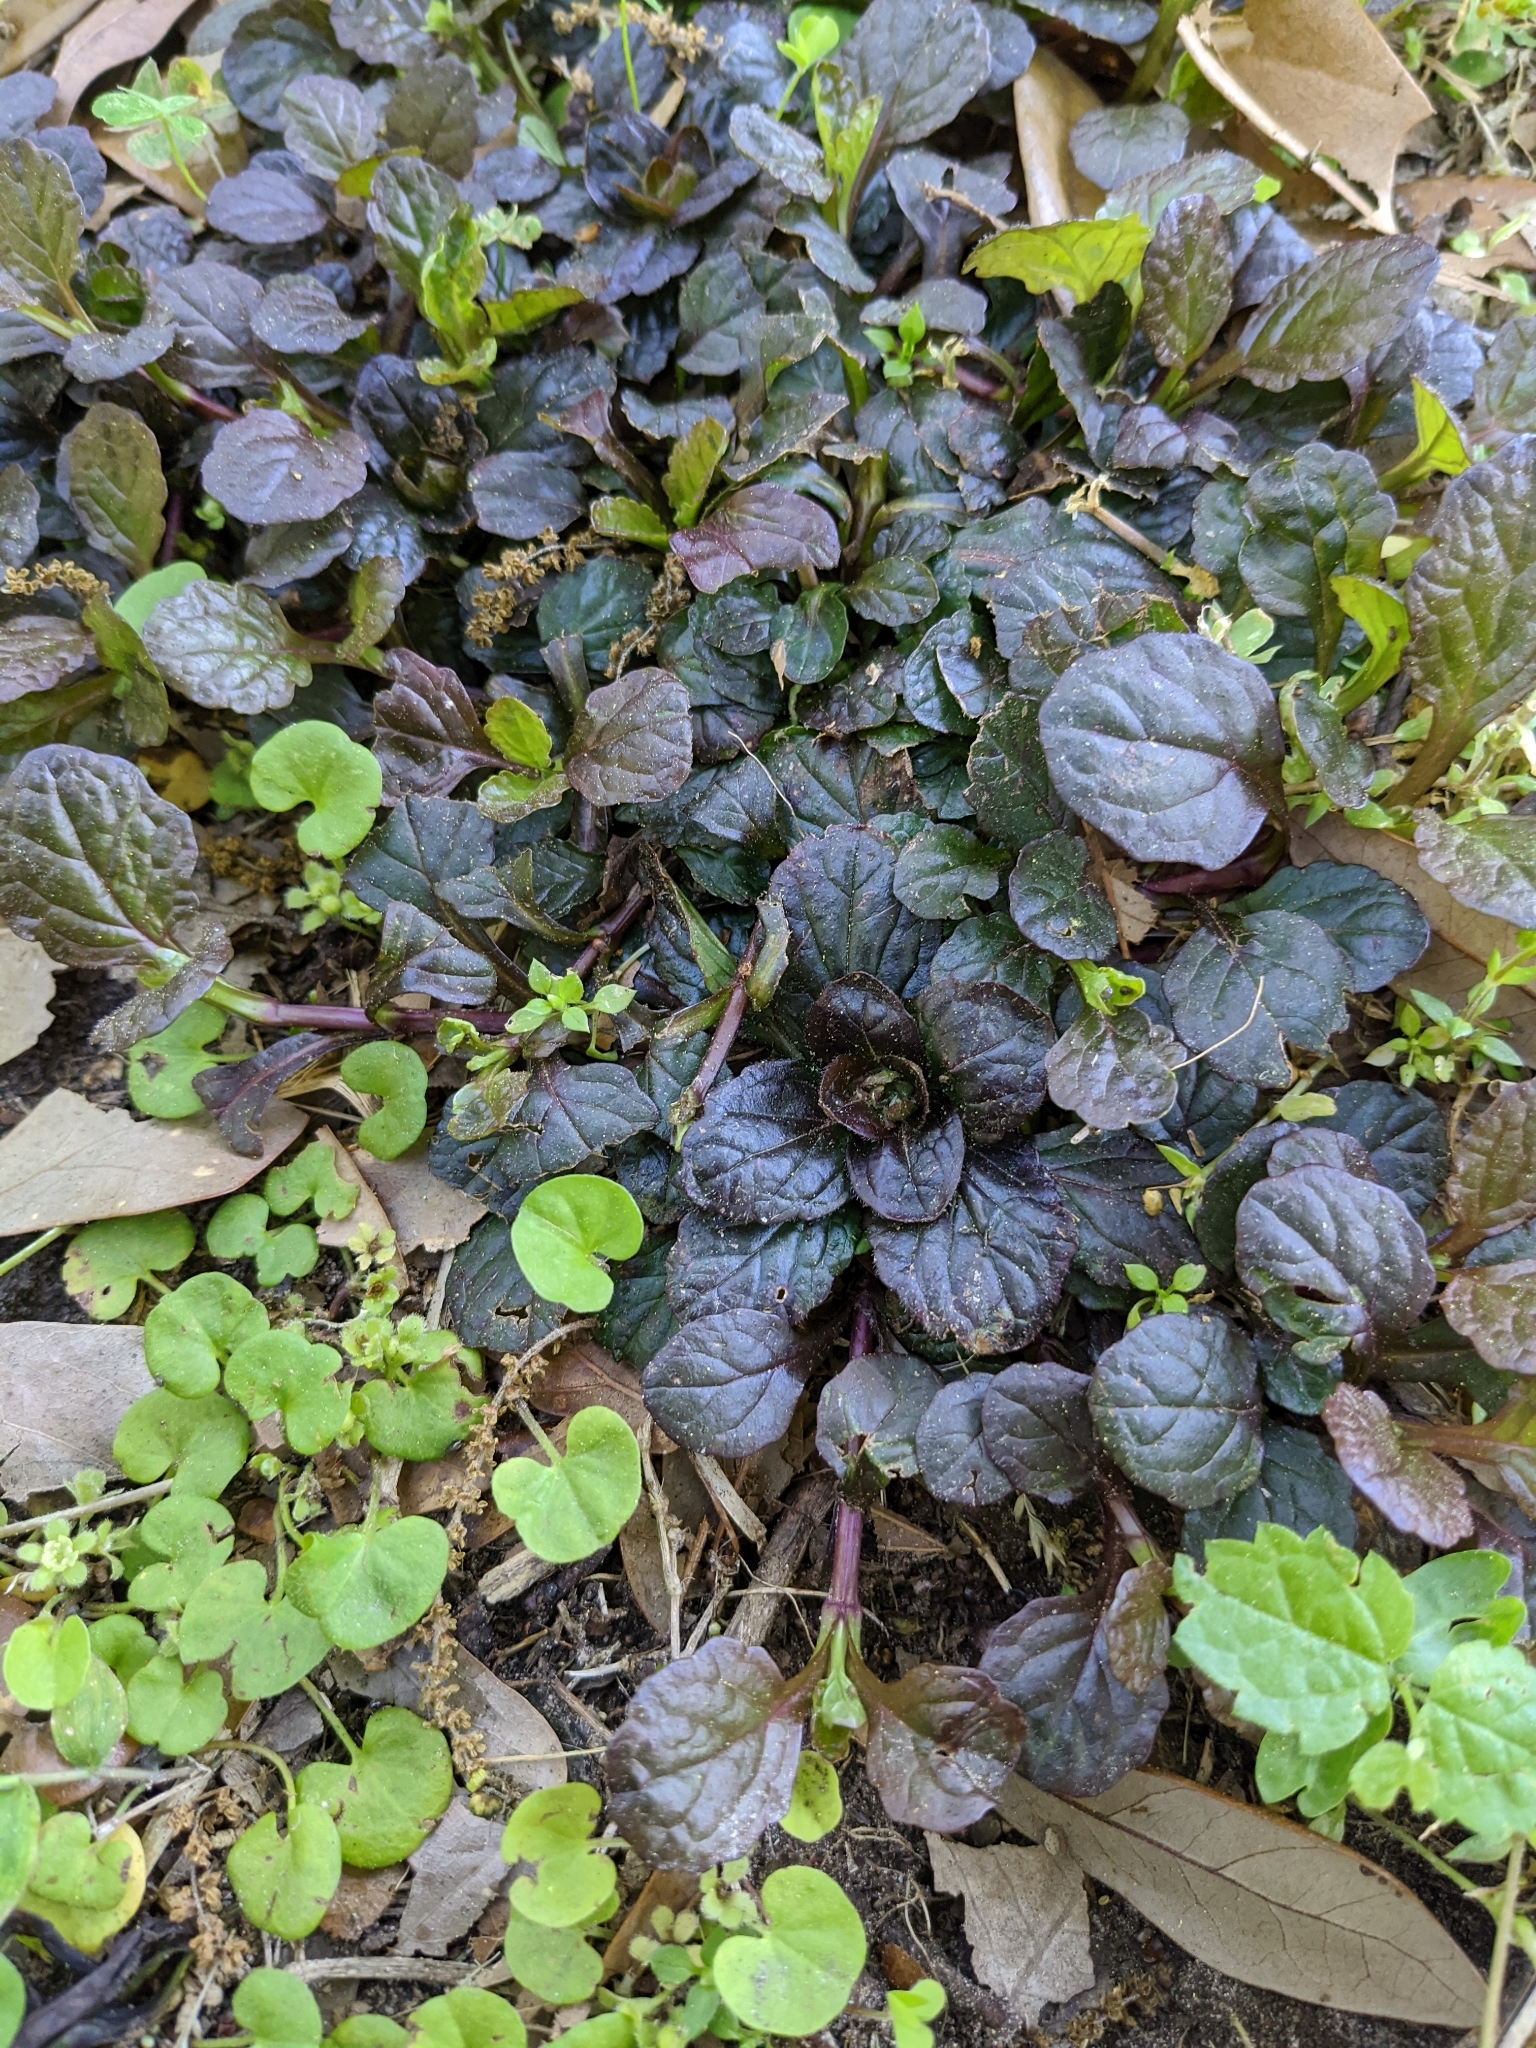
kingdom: Plantae
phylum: Tracheophyta
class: Magnoliopsida
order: Lamiales
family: Lamiaceae
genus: Ajuga
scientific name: Ajuga reptans
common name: Bugle
